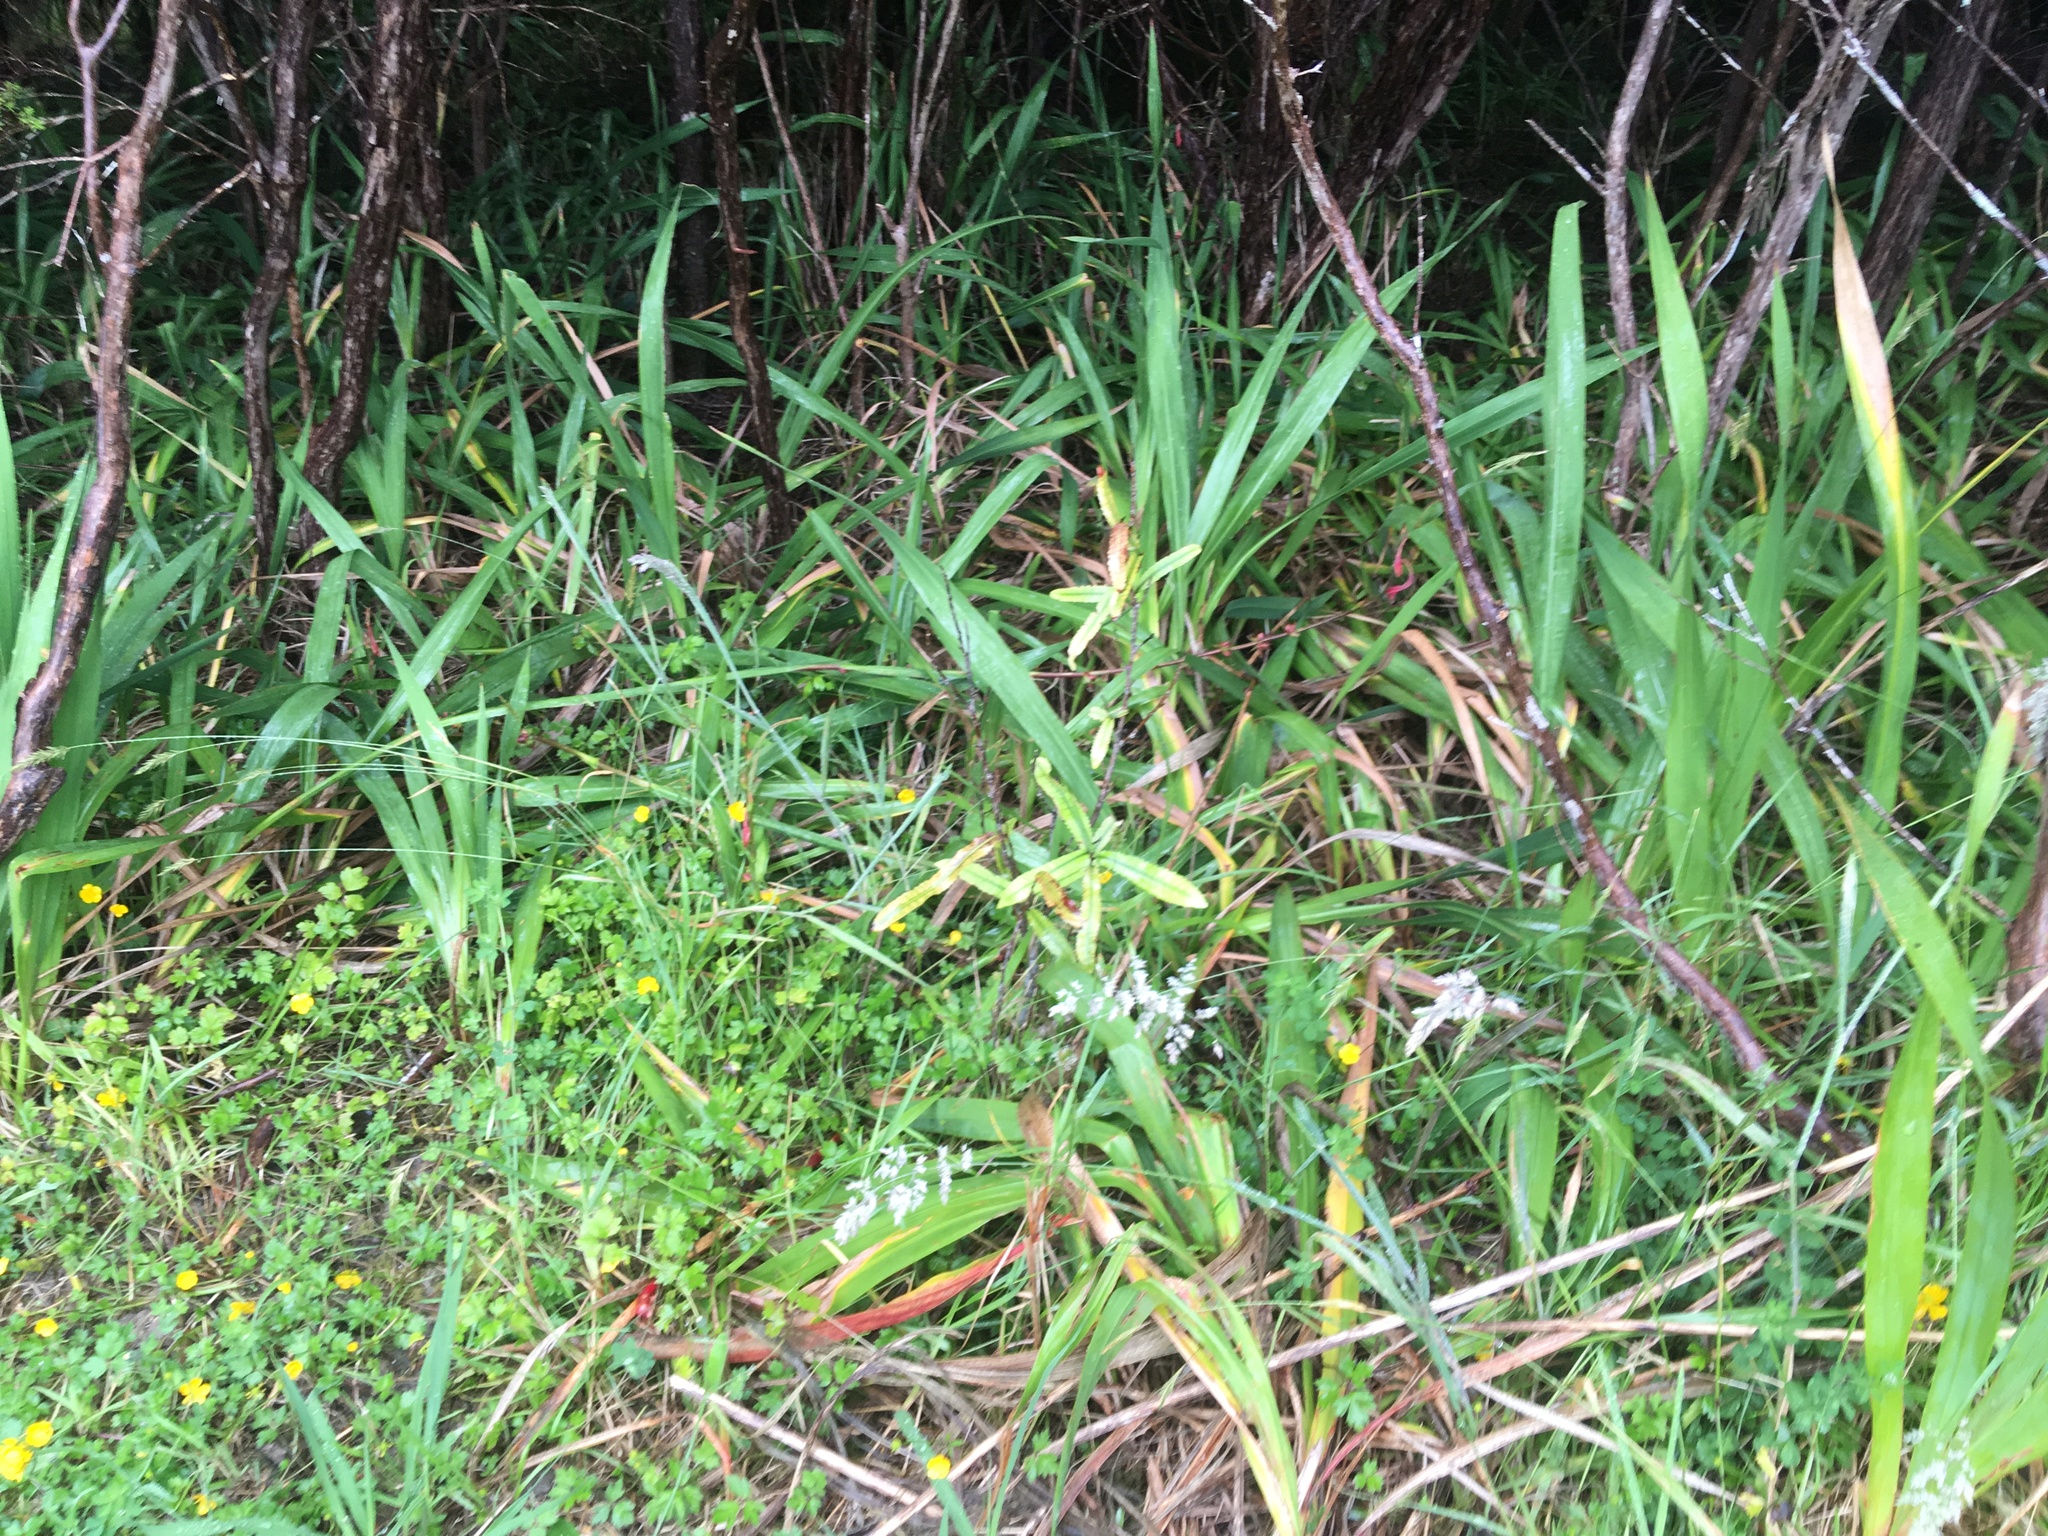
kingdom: Plantae
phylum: Tracheophyta
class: Magnoliopsida
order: Proteales
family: Proteaceae
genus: Knightia
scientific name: Knightia excelsa
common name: New zealand-honeysuckle
